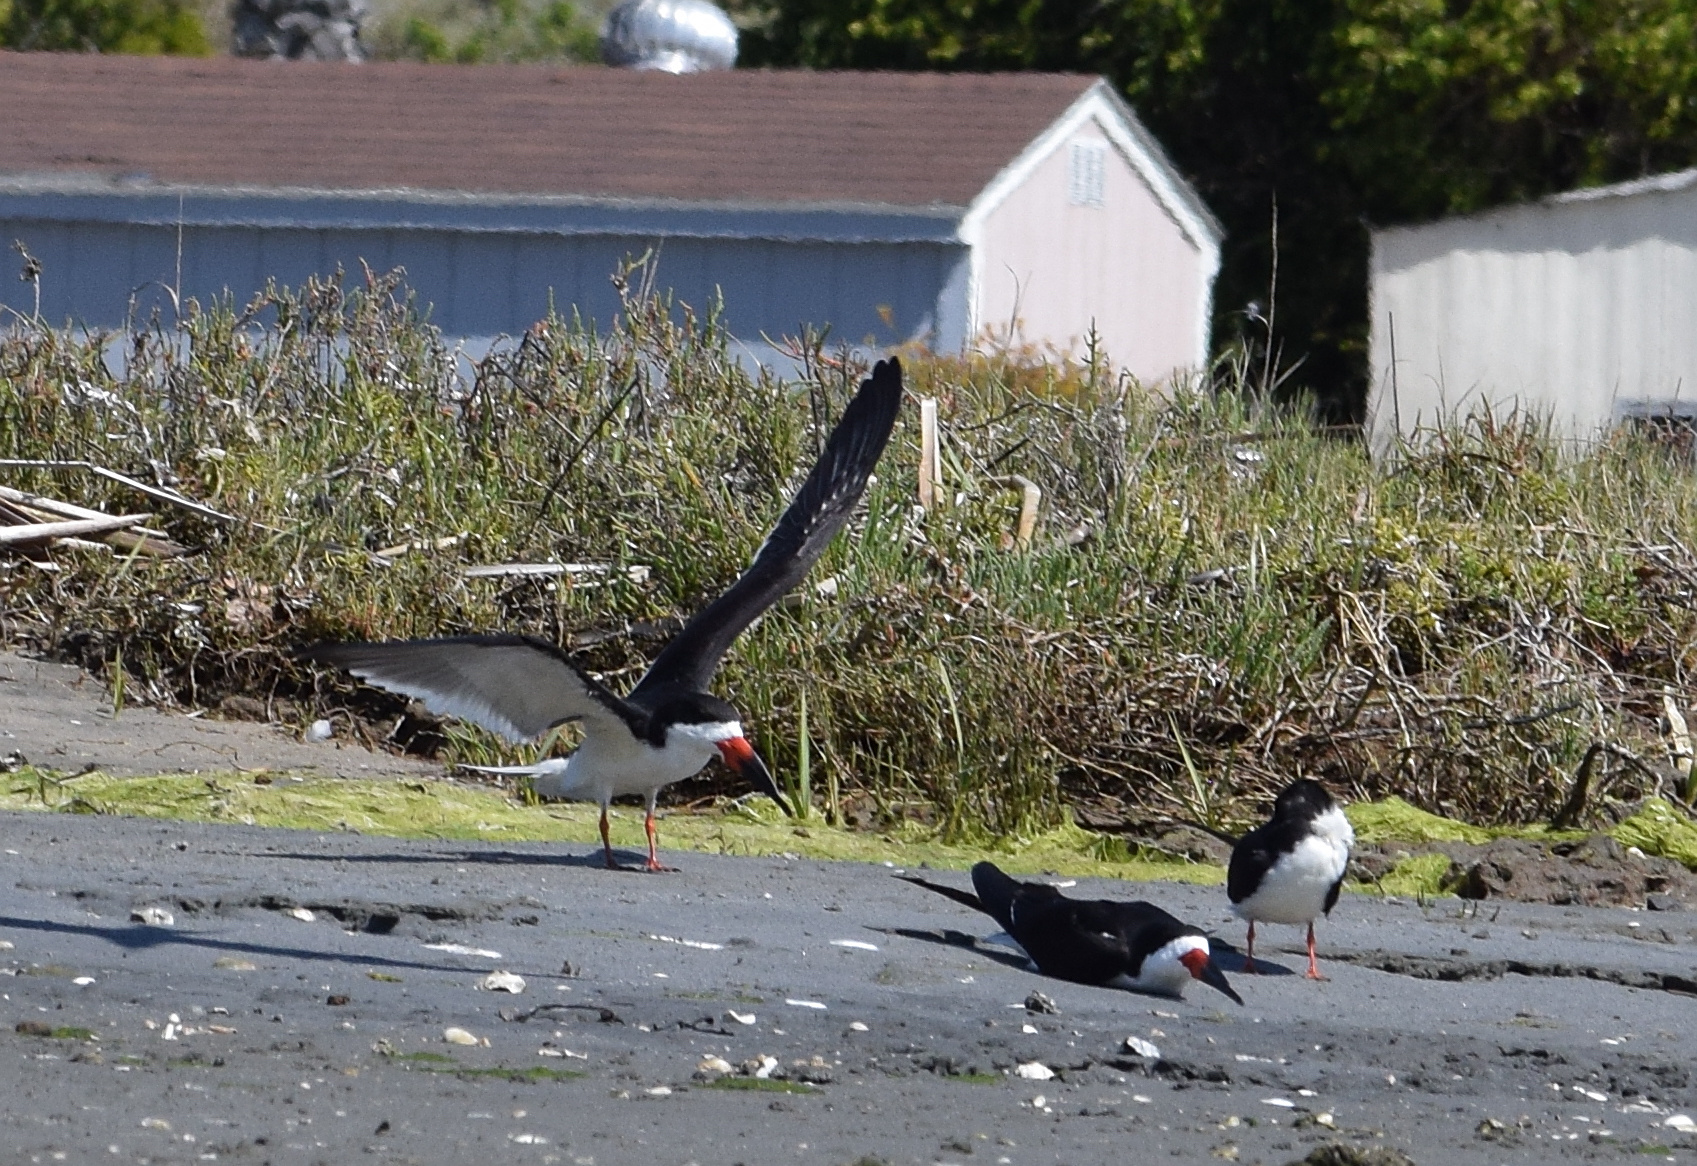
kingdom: Animalia
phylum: Chordata
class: Aves
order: Charadriiformes
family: Laridae
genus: Rynchops
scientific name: Rynchops niger
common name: Black skimmer
